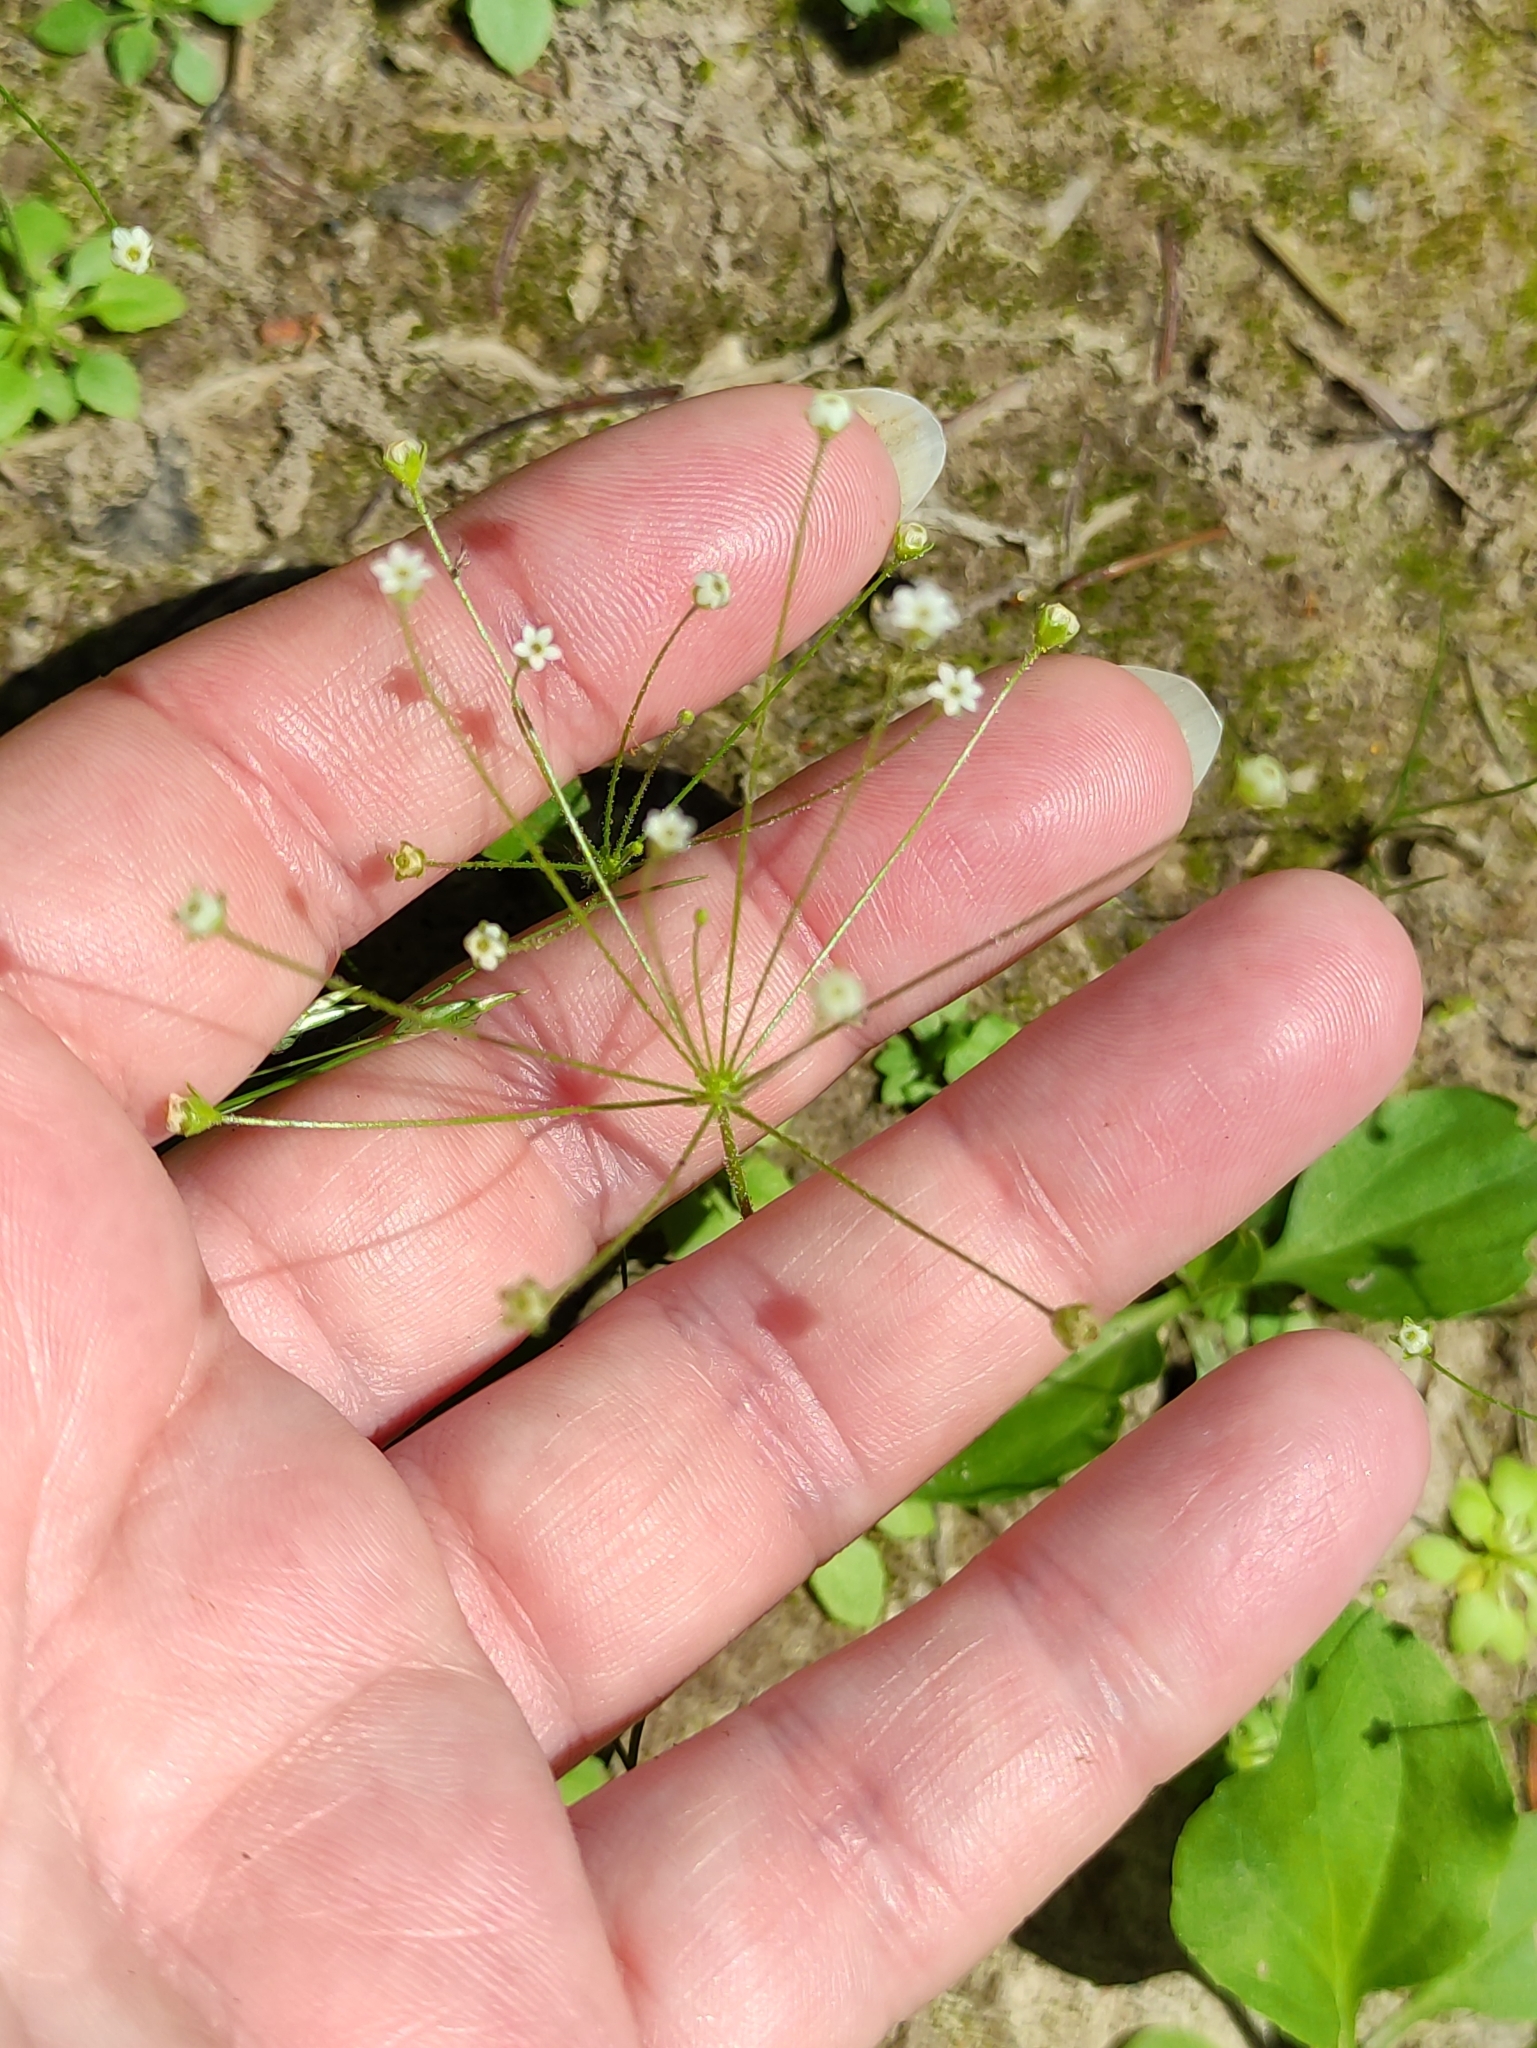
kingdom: Plantae
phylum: Tracheophyta
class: Magnoliopsida
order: Ericales
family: Primulaceae
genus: Androsace
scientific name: Androsace filiformis
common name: Filiform rock jasmine
